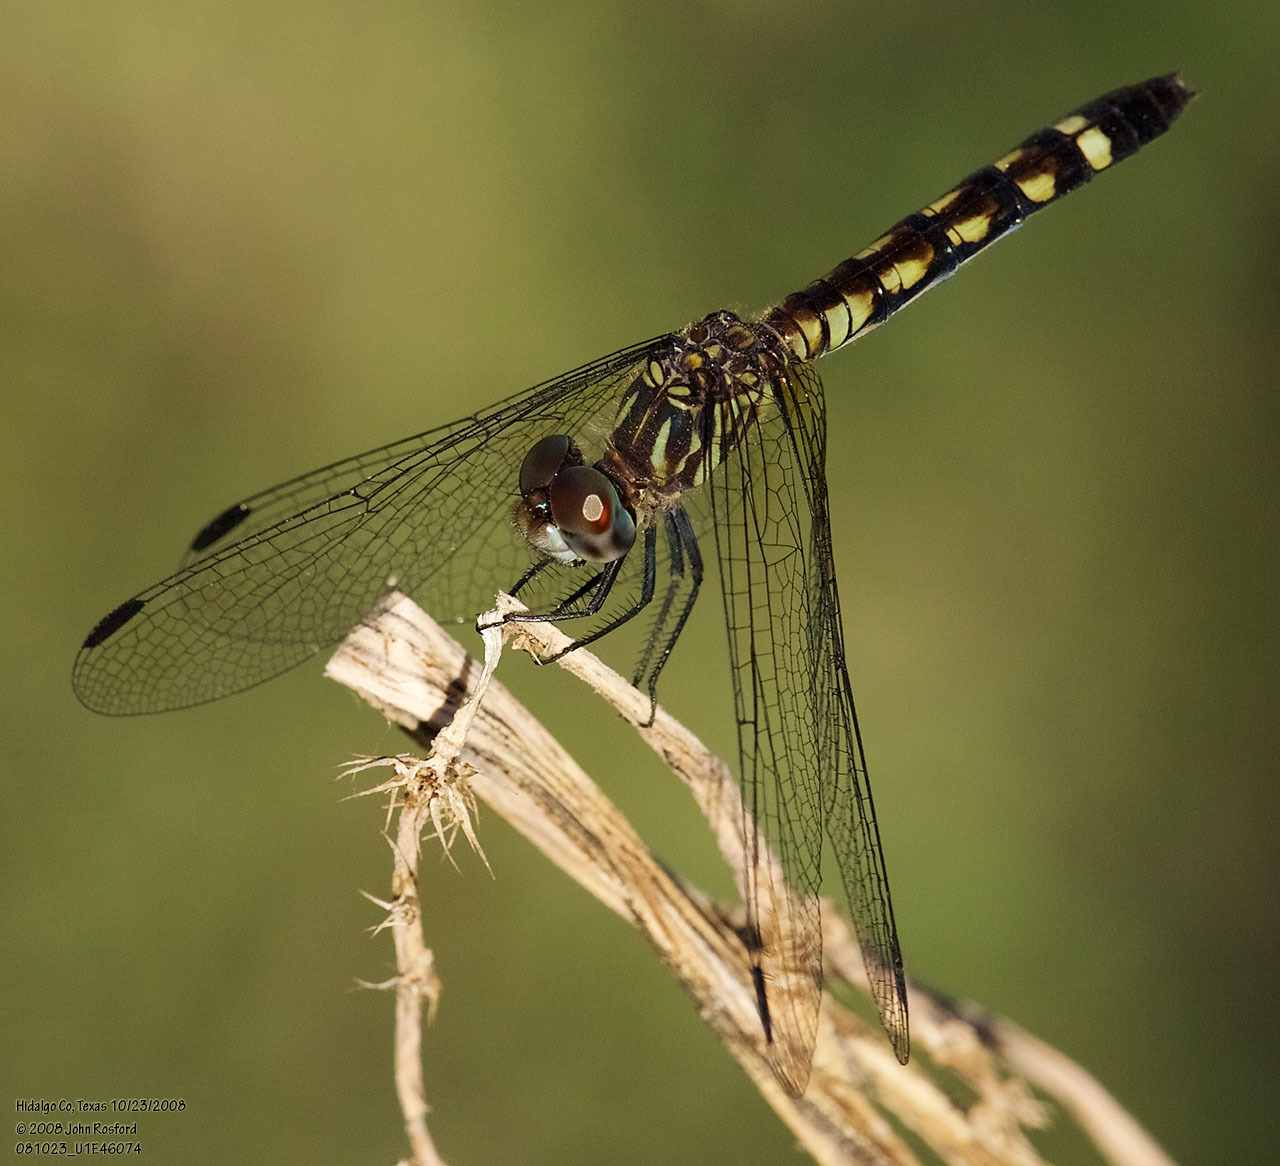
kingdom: Animalia
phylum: Arthropoda
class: Insecta
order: Odonata
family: Libellulidae
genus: Micrathyria
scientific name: Micrathyria hagenii
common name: Thornbush dasher
